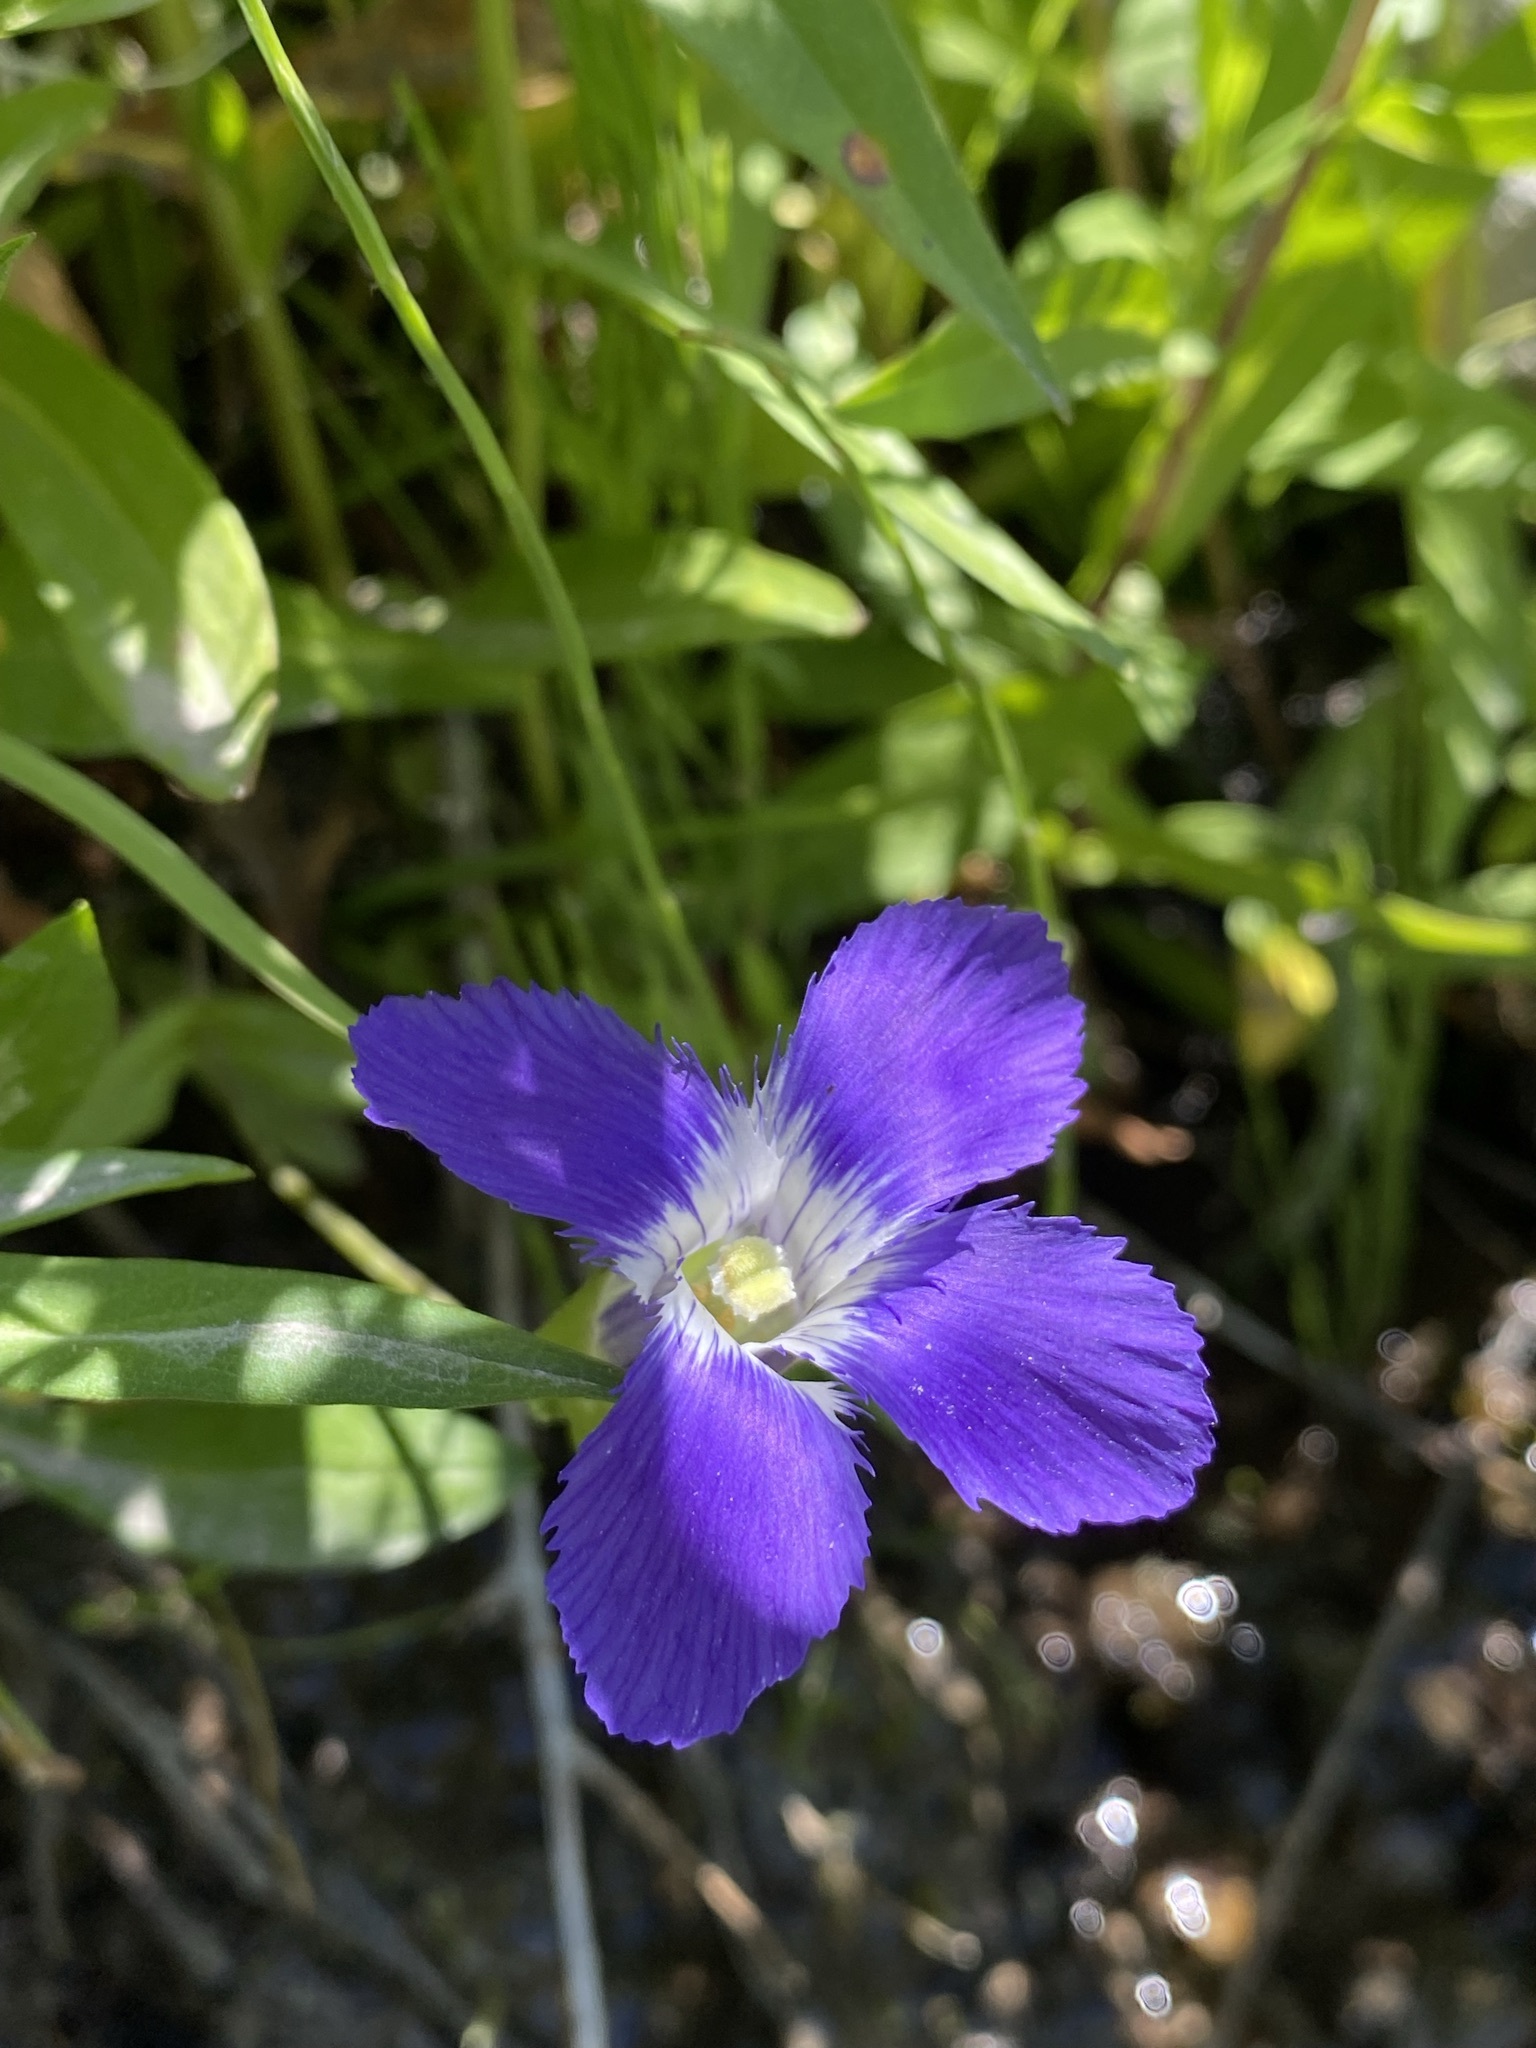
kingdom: Plantae
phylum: Tracheophyta
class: Magnoliopsida
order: Gentianales
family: Gentianaceae
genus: Gentianopsis
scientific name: Gentianopsis thermalis
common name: Rocky mountain fringed-gentian
